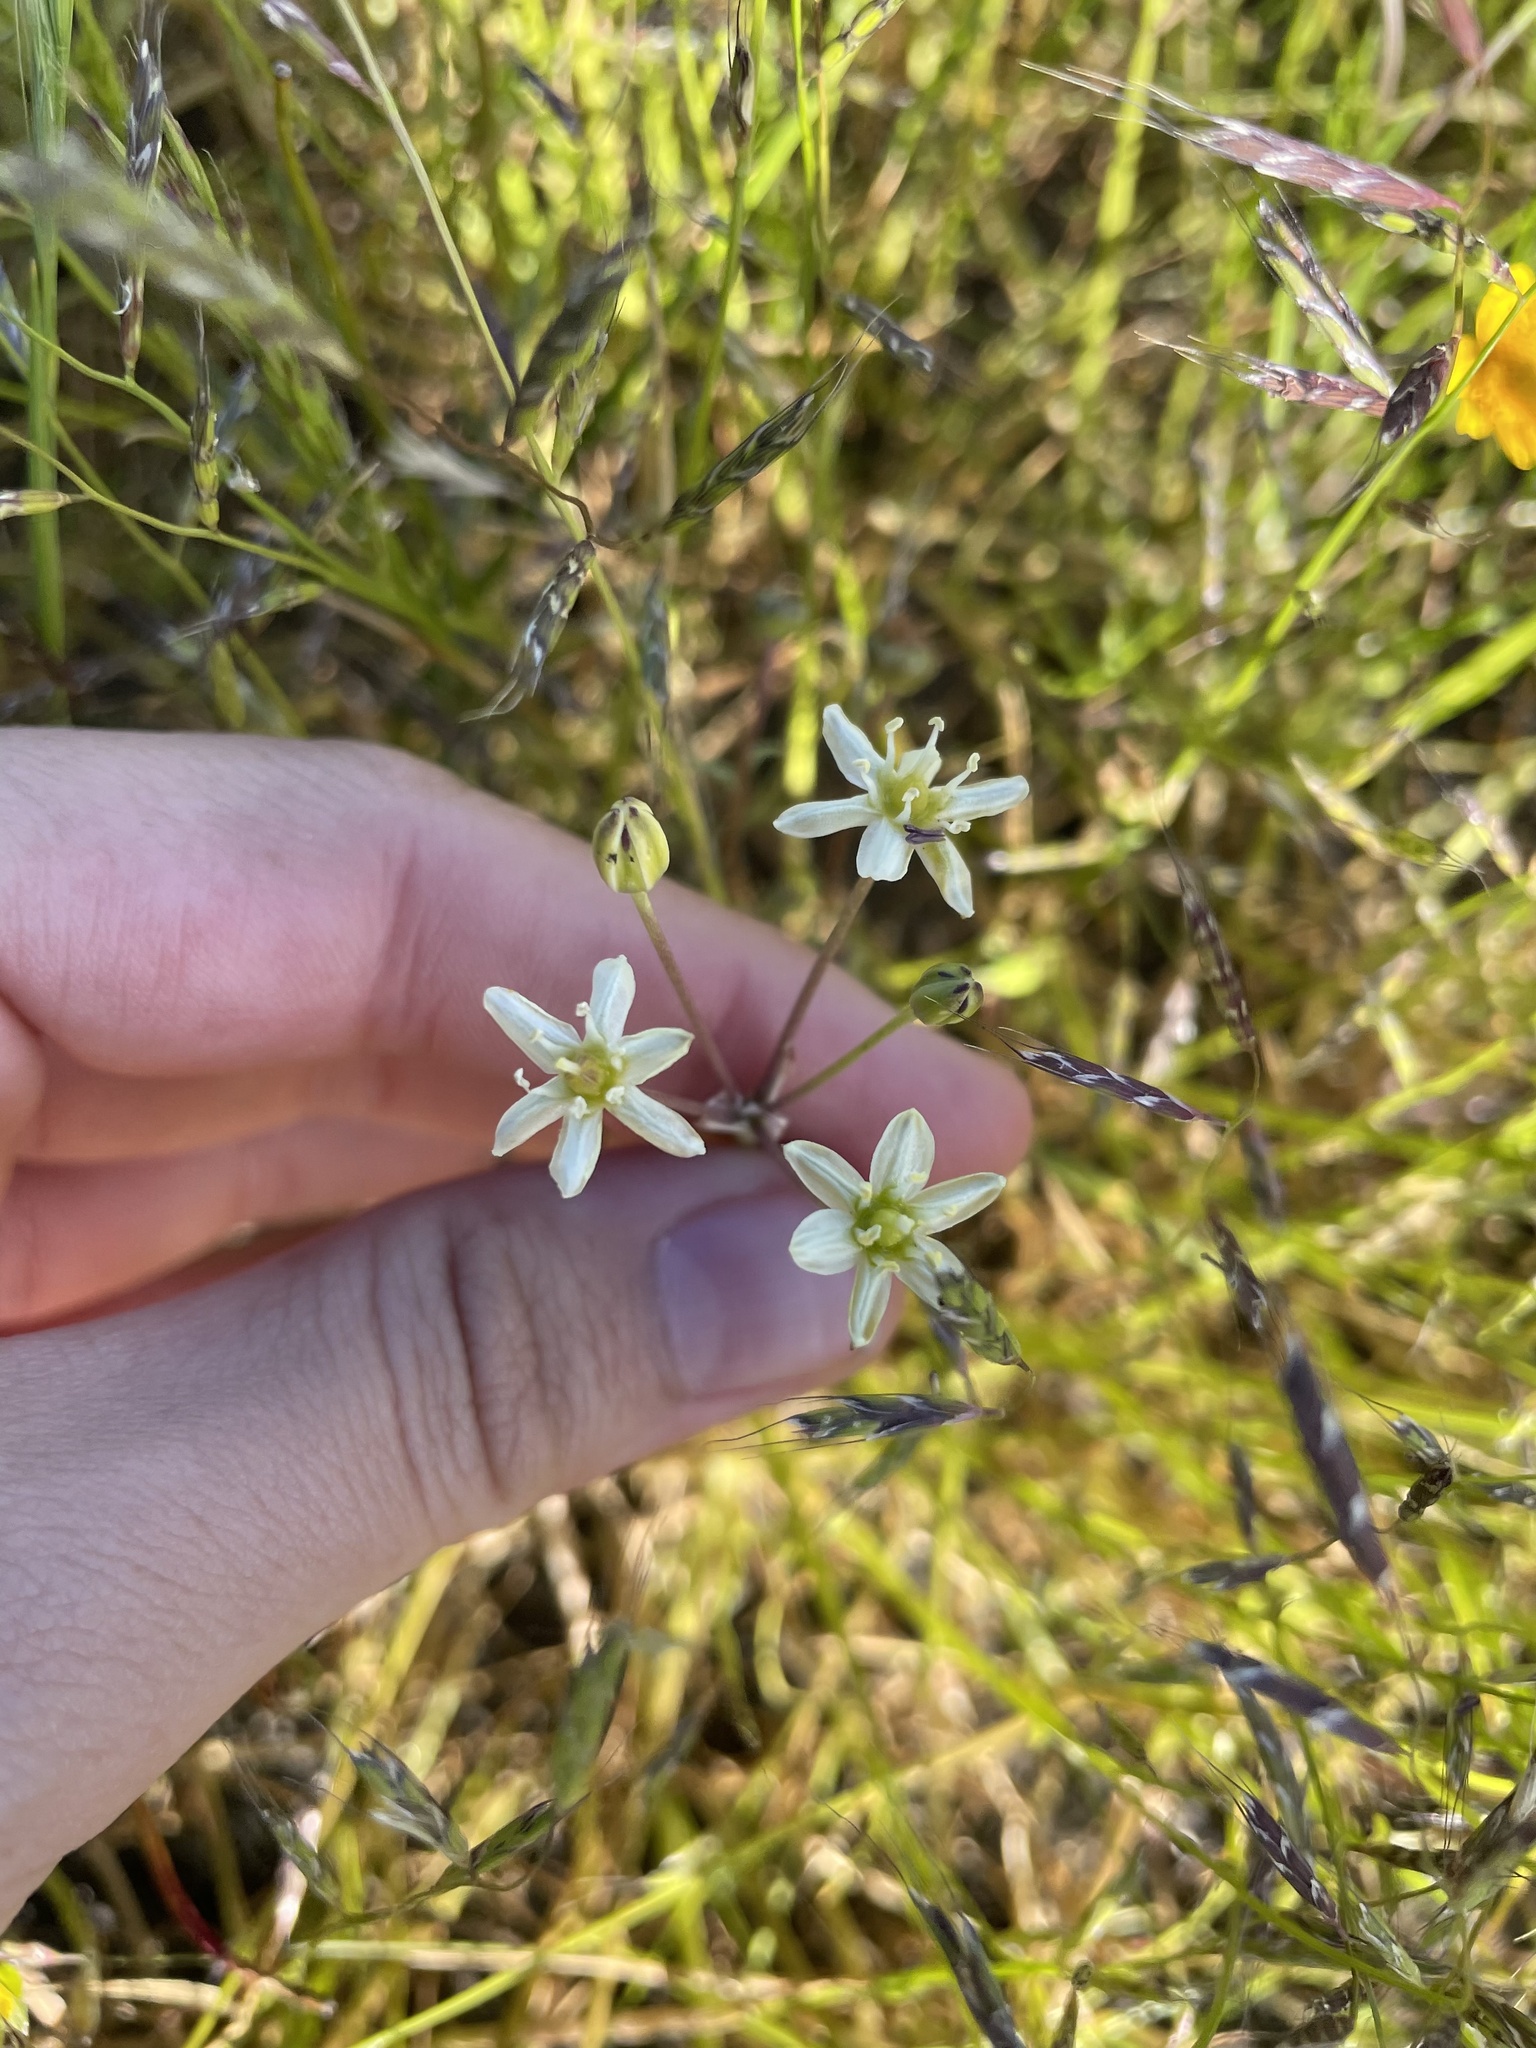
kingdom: Plantae
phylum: Tracheophyta
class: Liliopsida
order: Asparagales
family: Asparagaceae
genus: Muilla
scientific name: Muilla maritima
